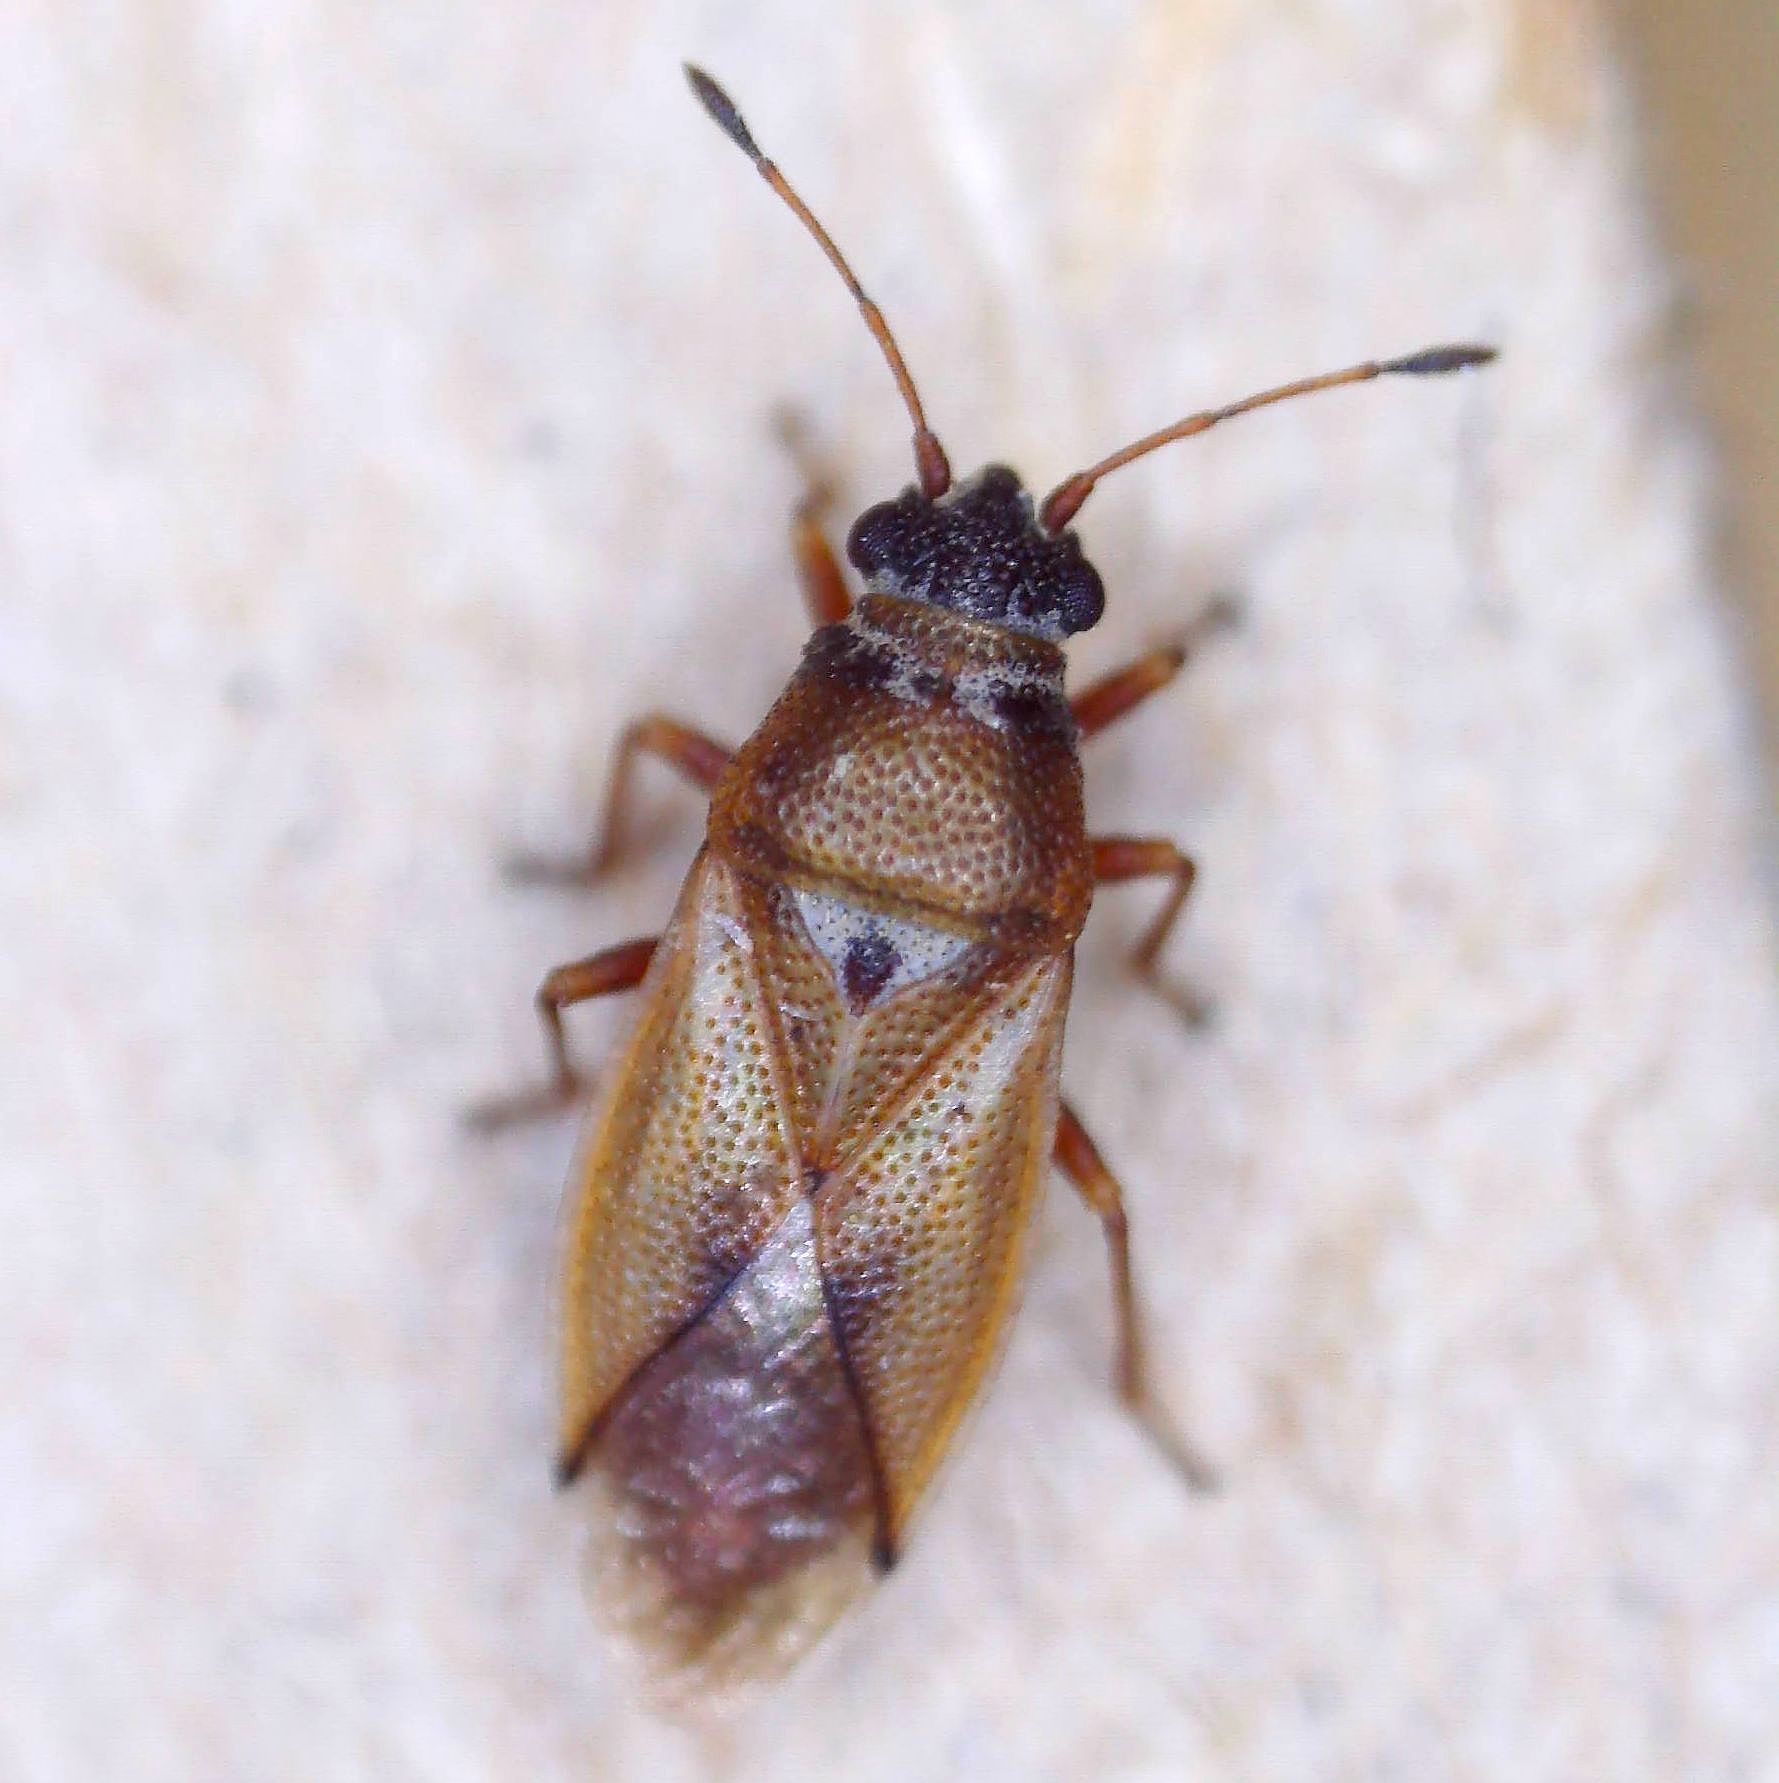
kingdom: Animalia
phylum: Arthropoda
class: Insecta
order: Hemiptera
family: Cymidae
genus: Cymus
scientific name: Cymus melanocephalus
